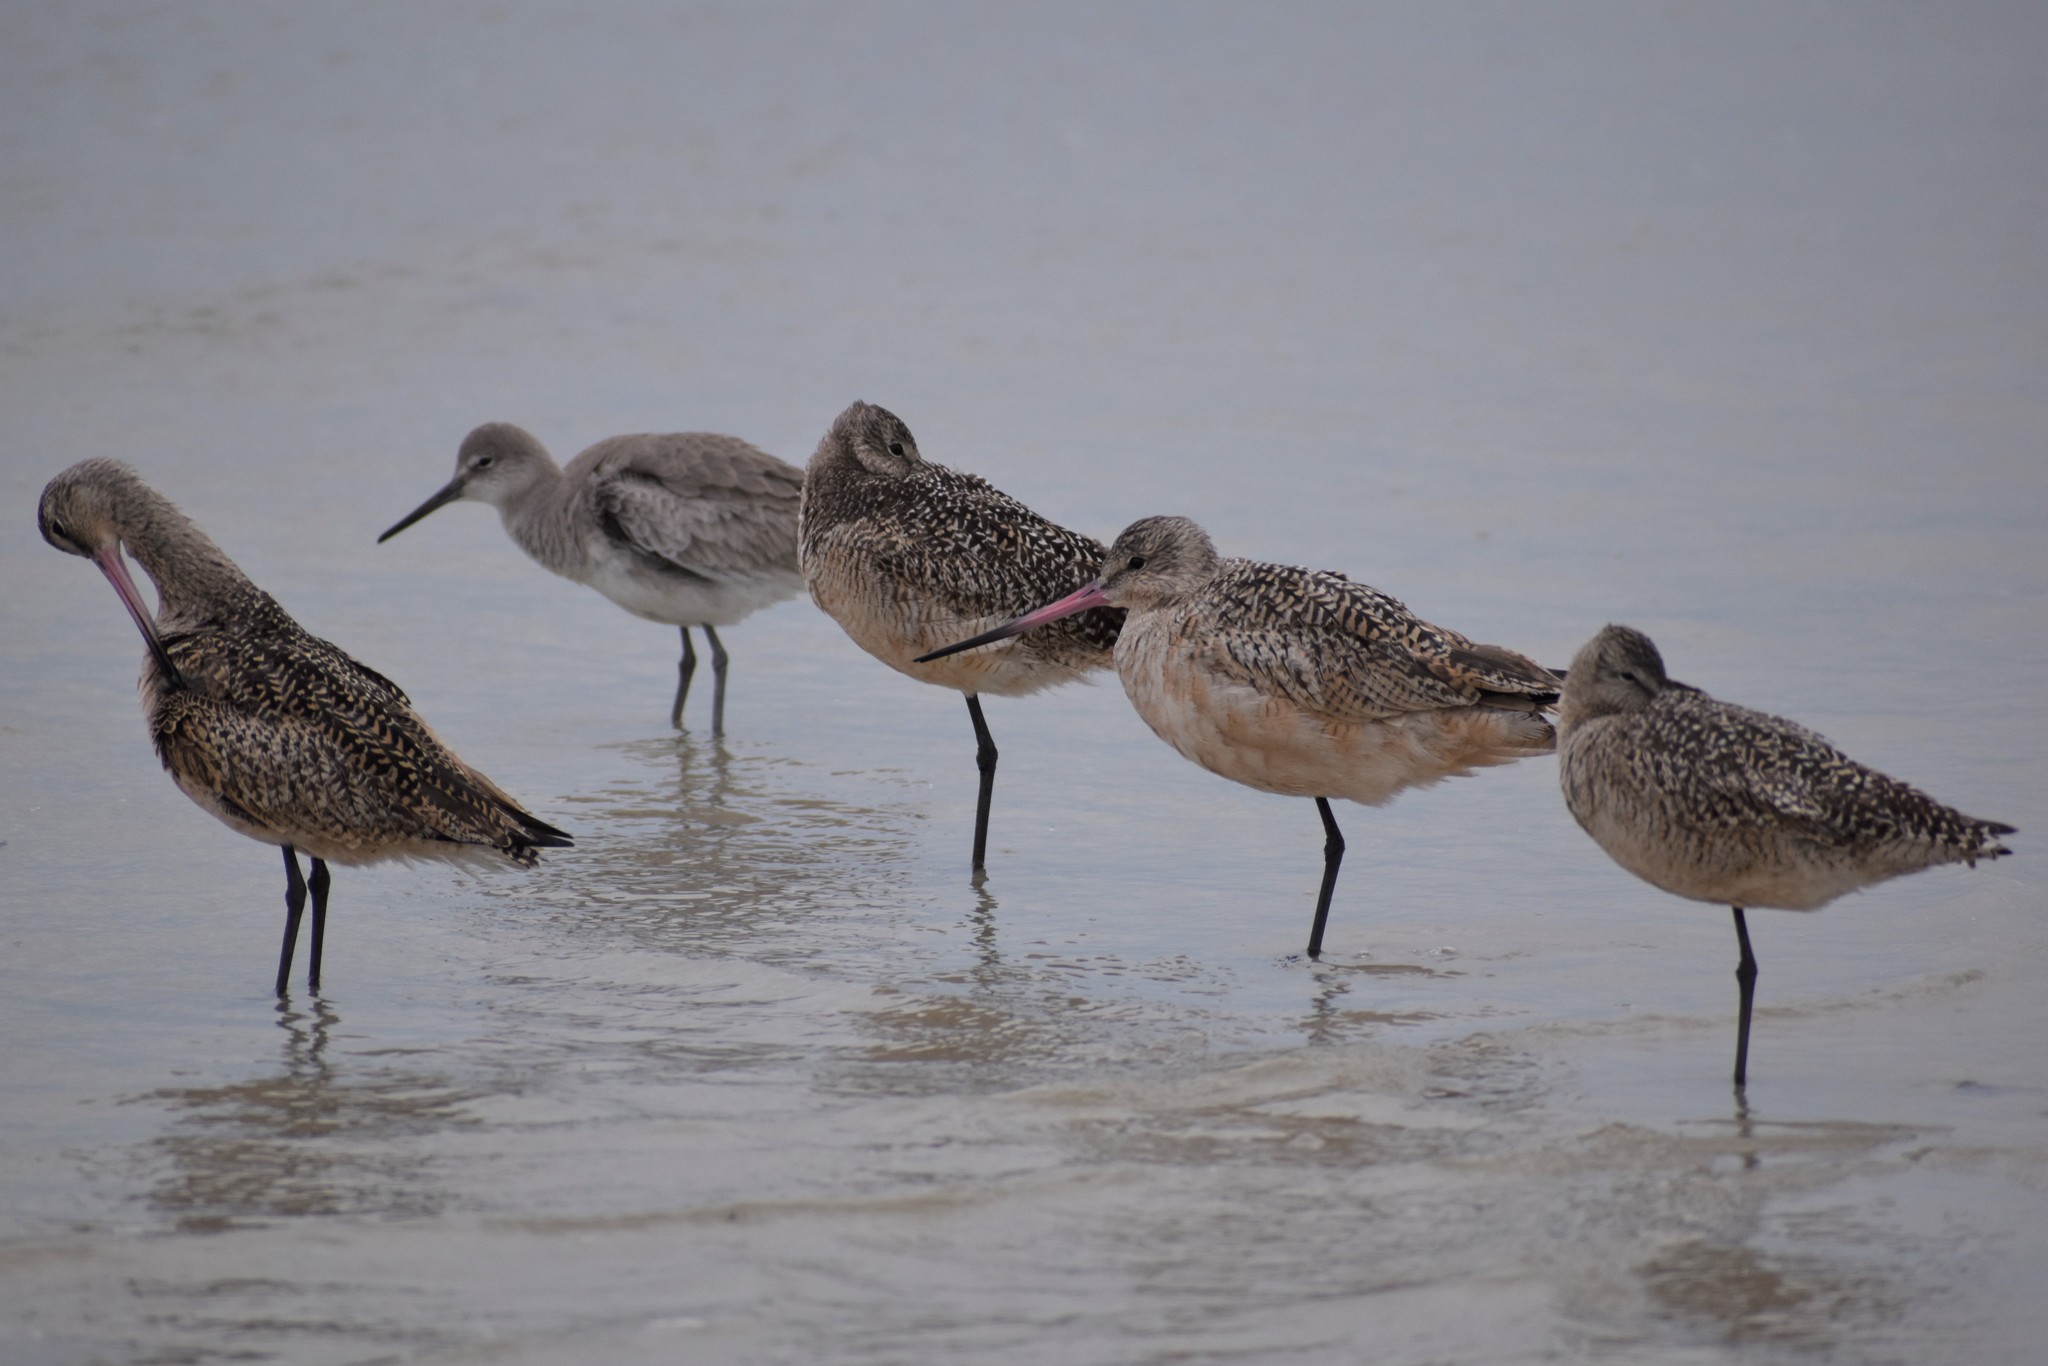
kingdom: Animalia
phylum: Chordata
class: Aves
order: Charadriiformes
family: Scolopacidae
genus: Limosa
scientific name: Limosa fedoa
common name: Marbled godwit
